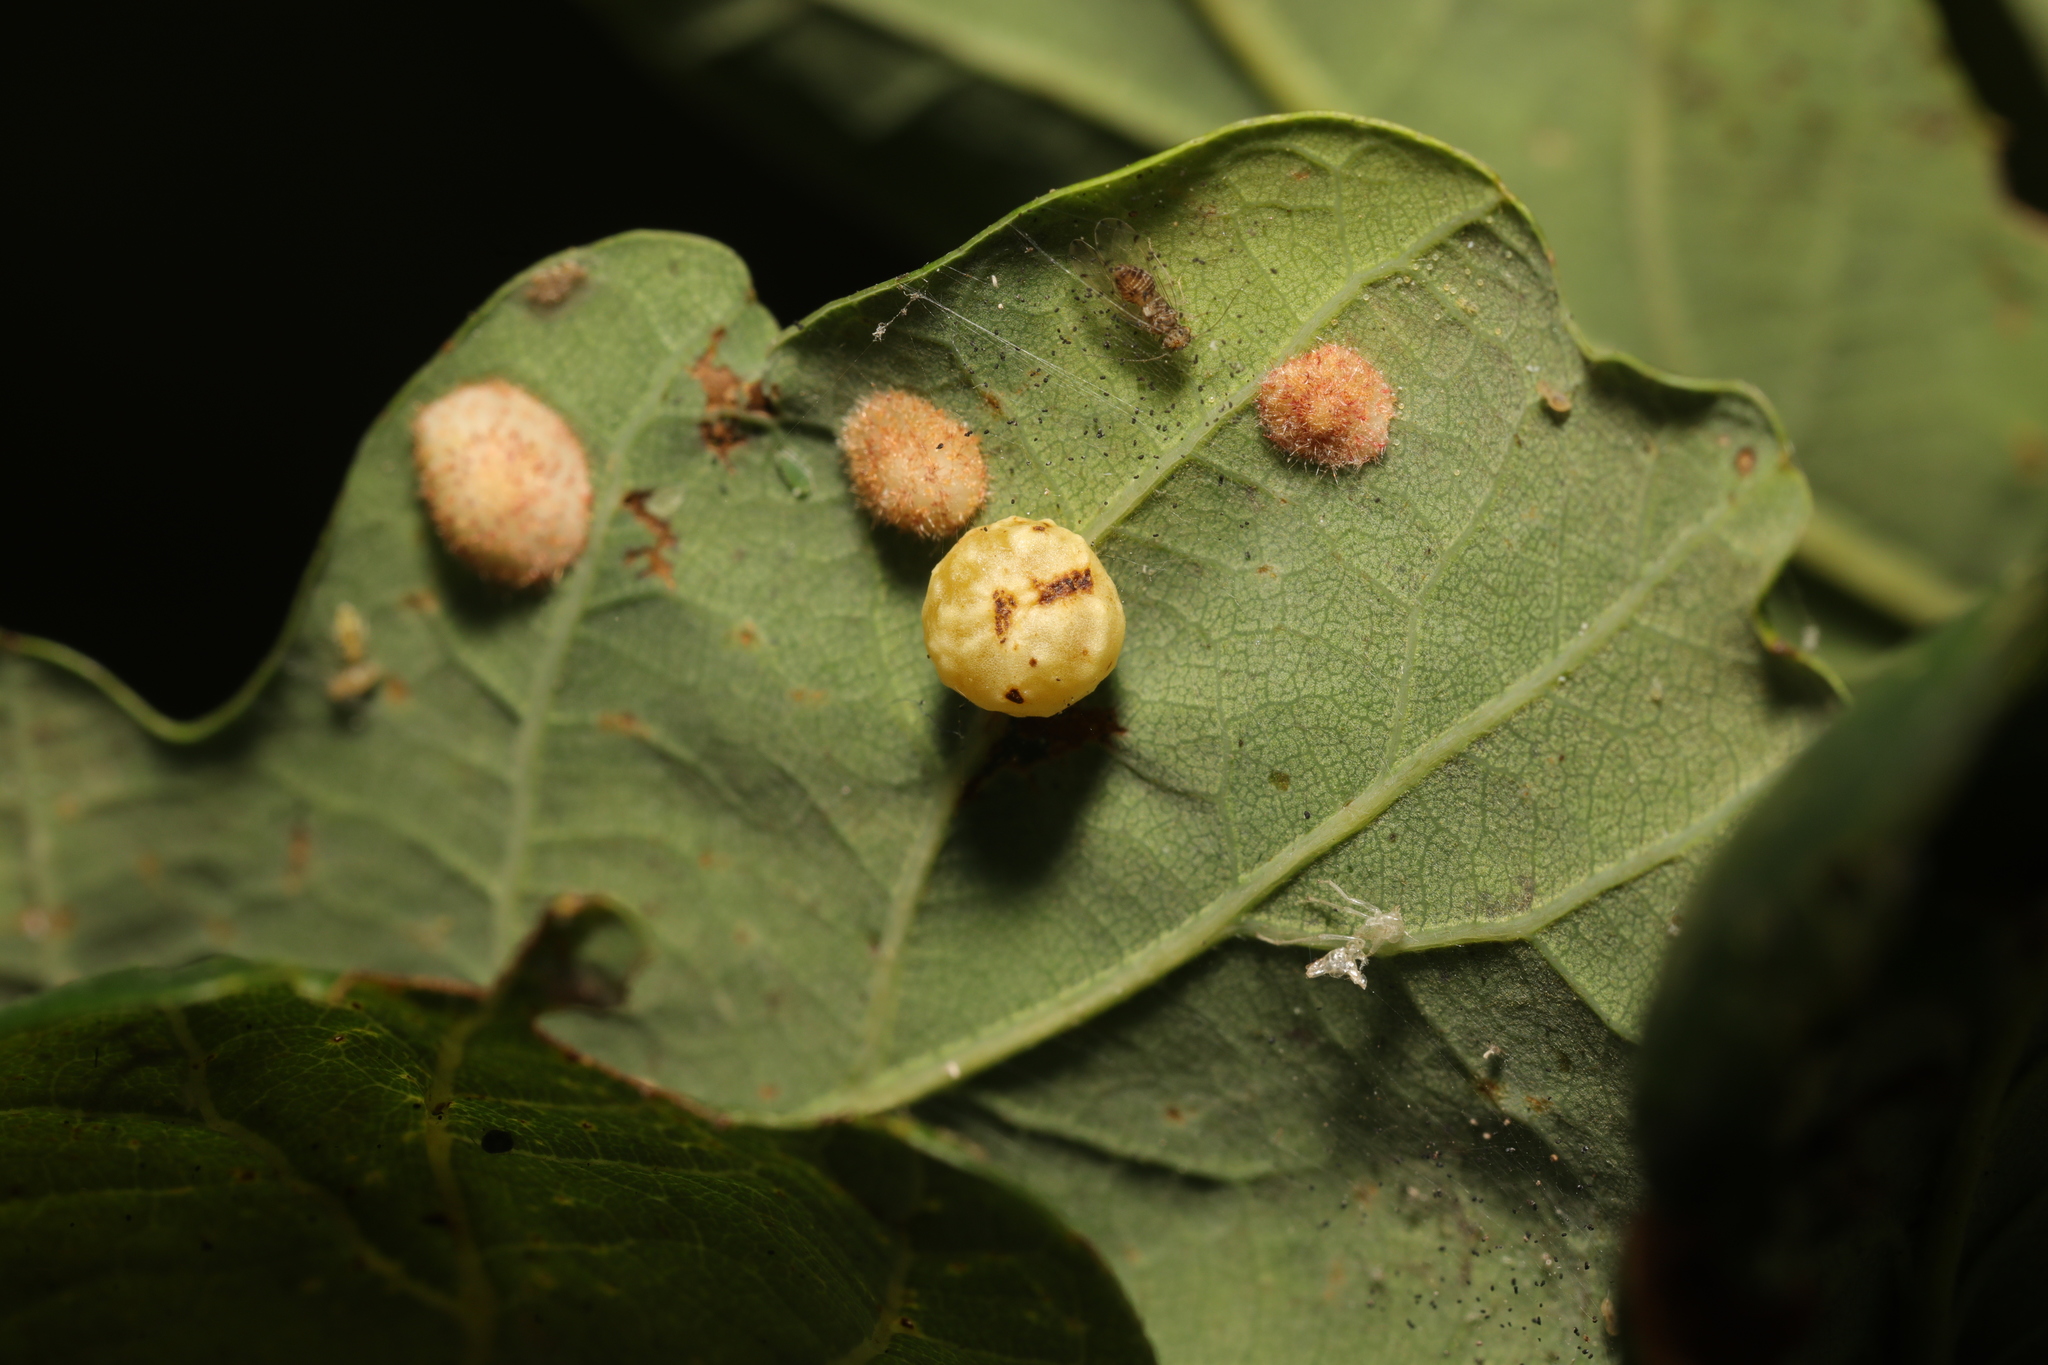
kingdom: Animalia
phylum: Arthropoda
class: Insecta
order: Hymenoptera
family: Cynipidae
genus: Cynips
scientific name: Cynips longiventris
